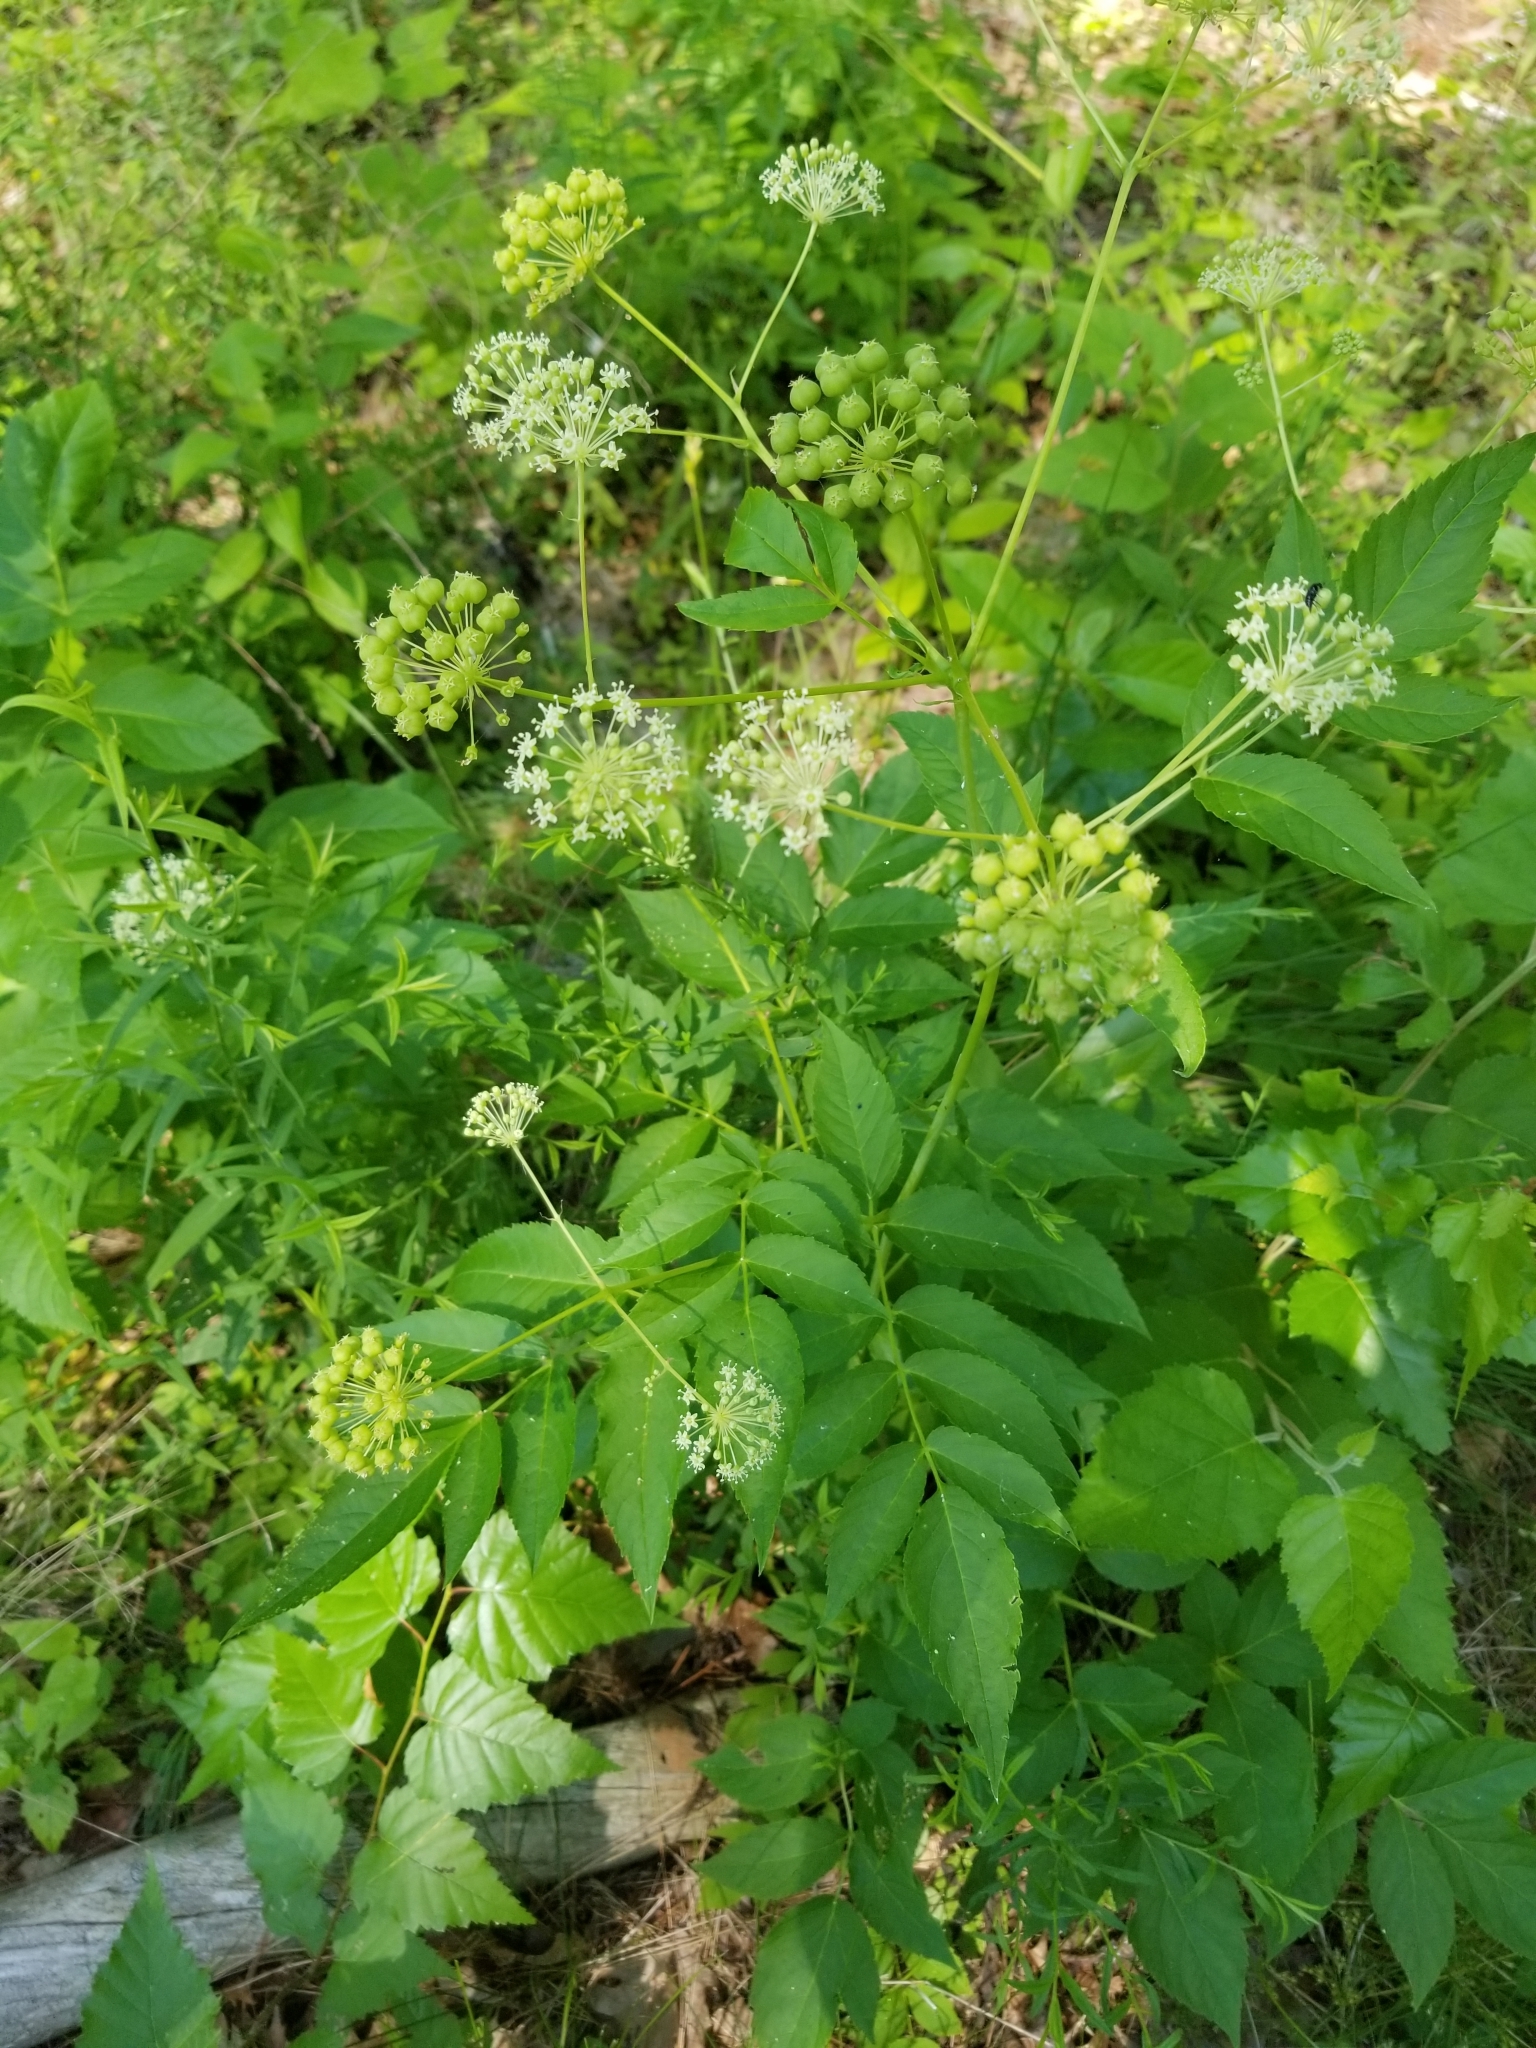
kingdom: Plantae
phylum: Tracheophyta
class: Magnoliopsida
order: Apiales
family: Araliaceae
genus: Aralia
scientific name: Aralia hispida
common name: Bristly sarsaparilla
